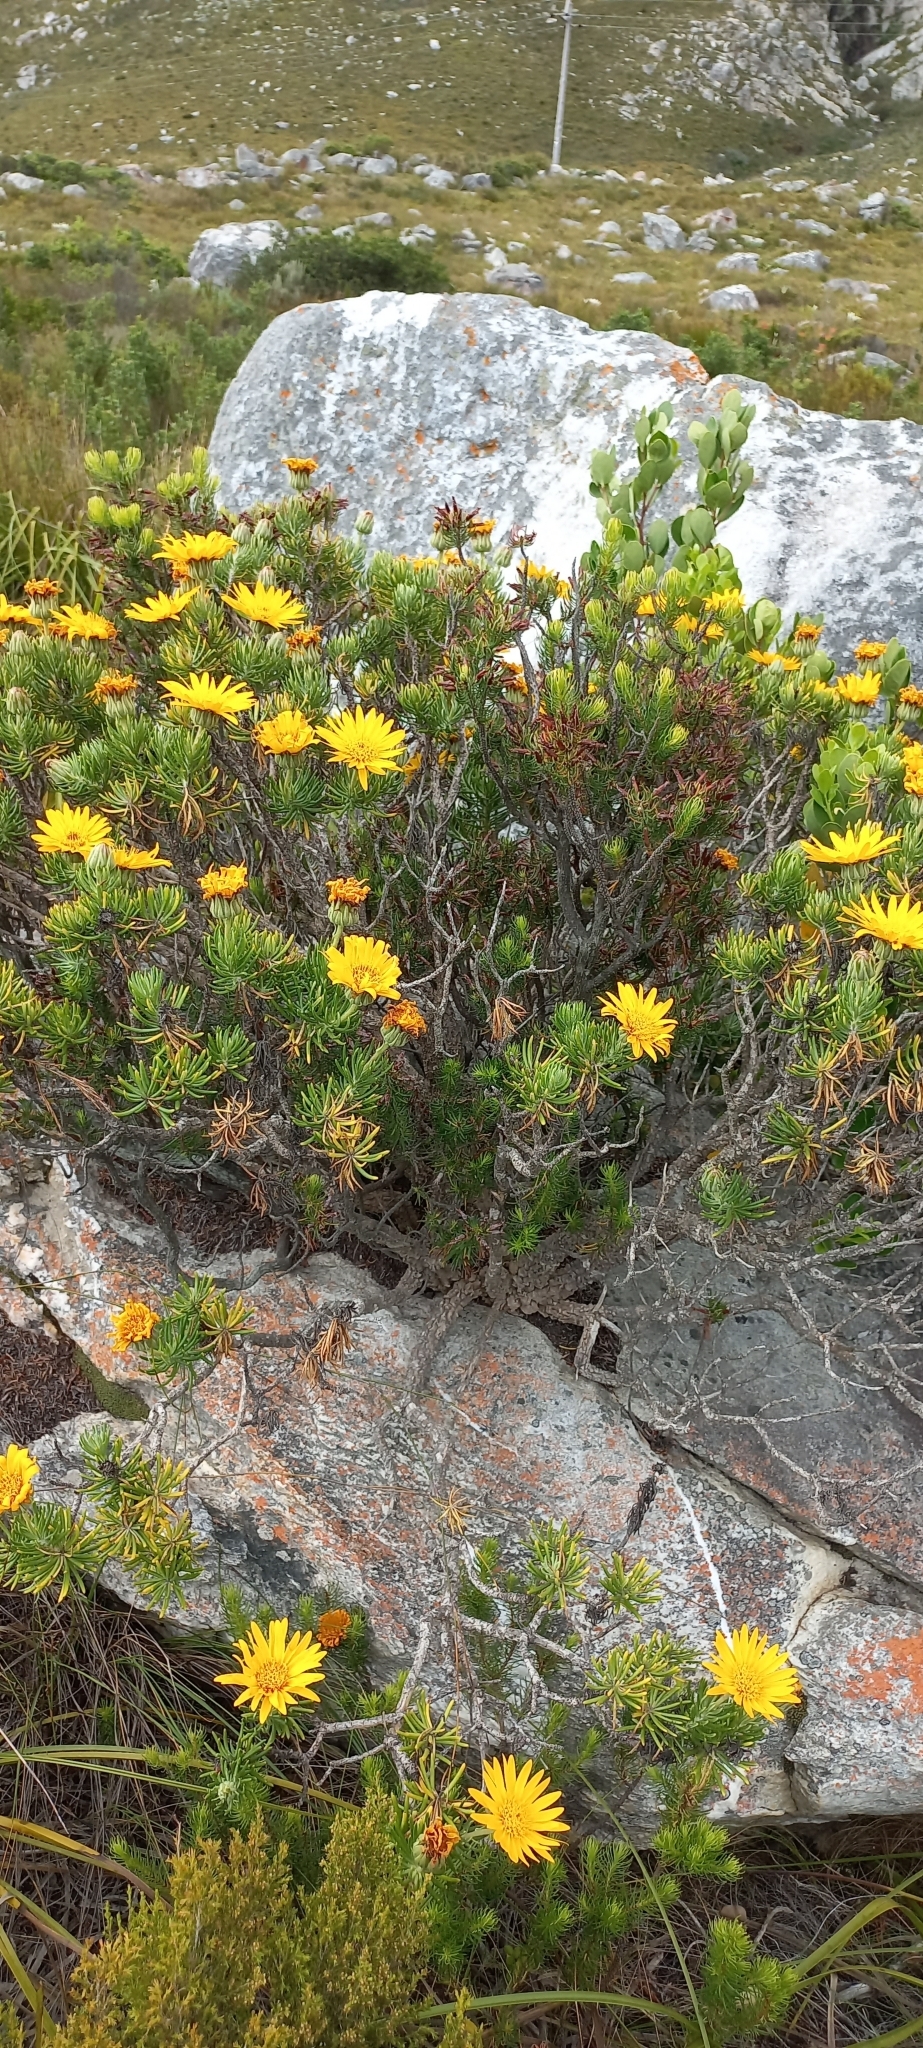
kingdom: Plantae
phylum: Tracheophyta
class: Magnoliopsida
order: Asterales
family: Asteraceae
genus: Heterolepis
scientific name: Heterolepis aliena
